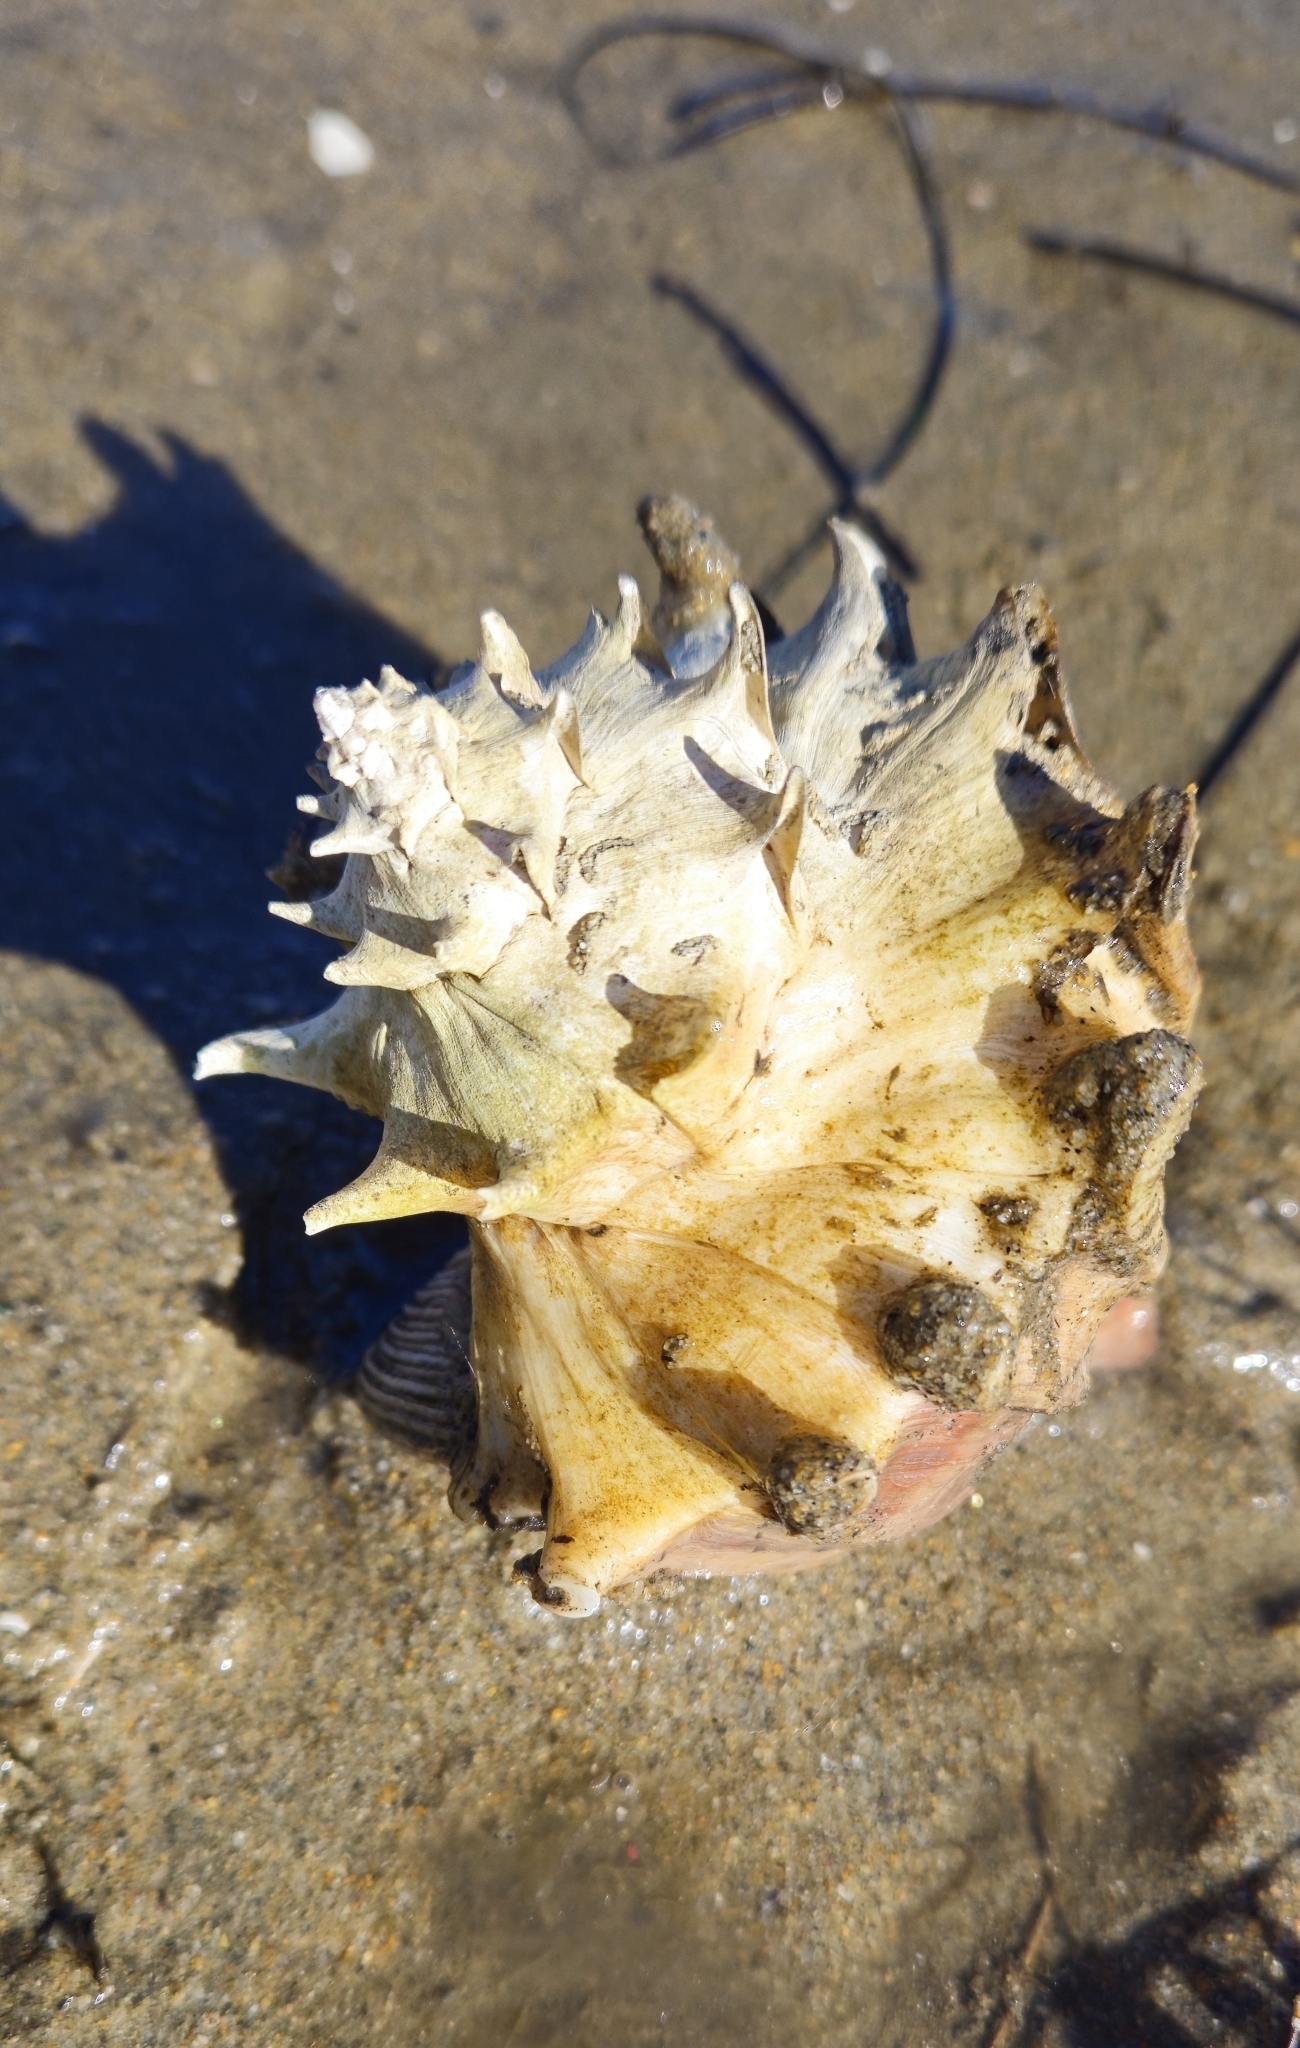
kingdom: Animalia
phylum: Mollusca
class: Gastropoda
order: Neogastropoda
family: Muricidae
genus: Forreria
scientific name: Forreria belcheri
